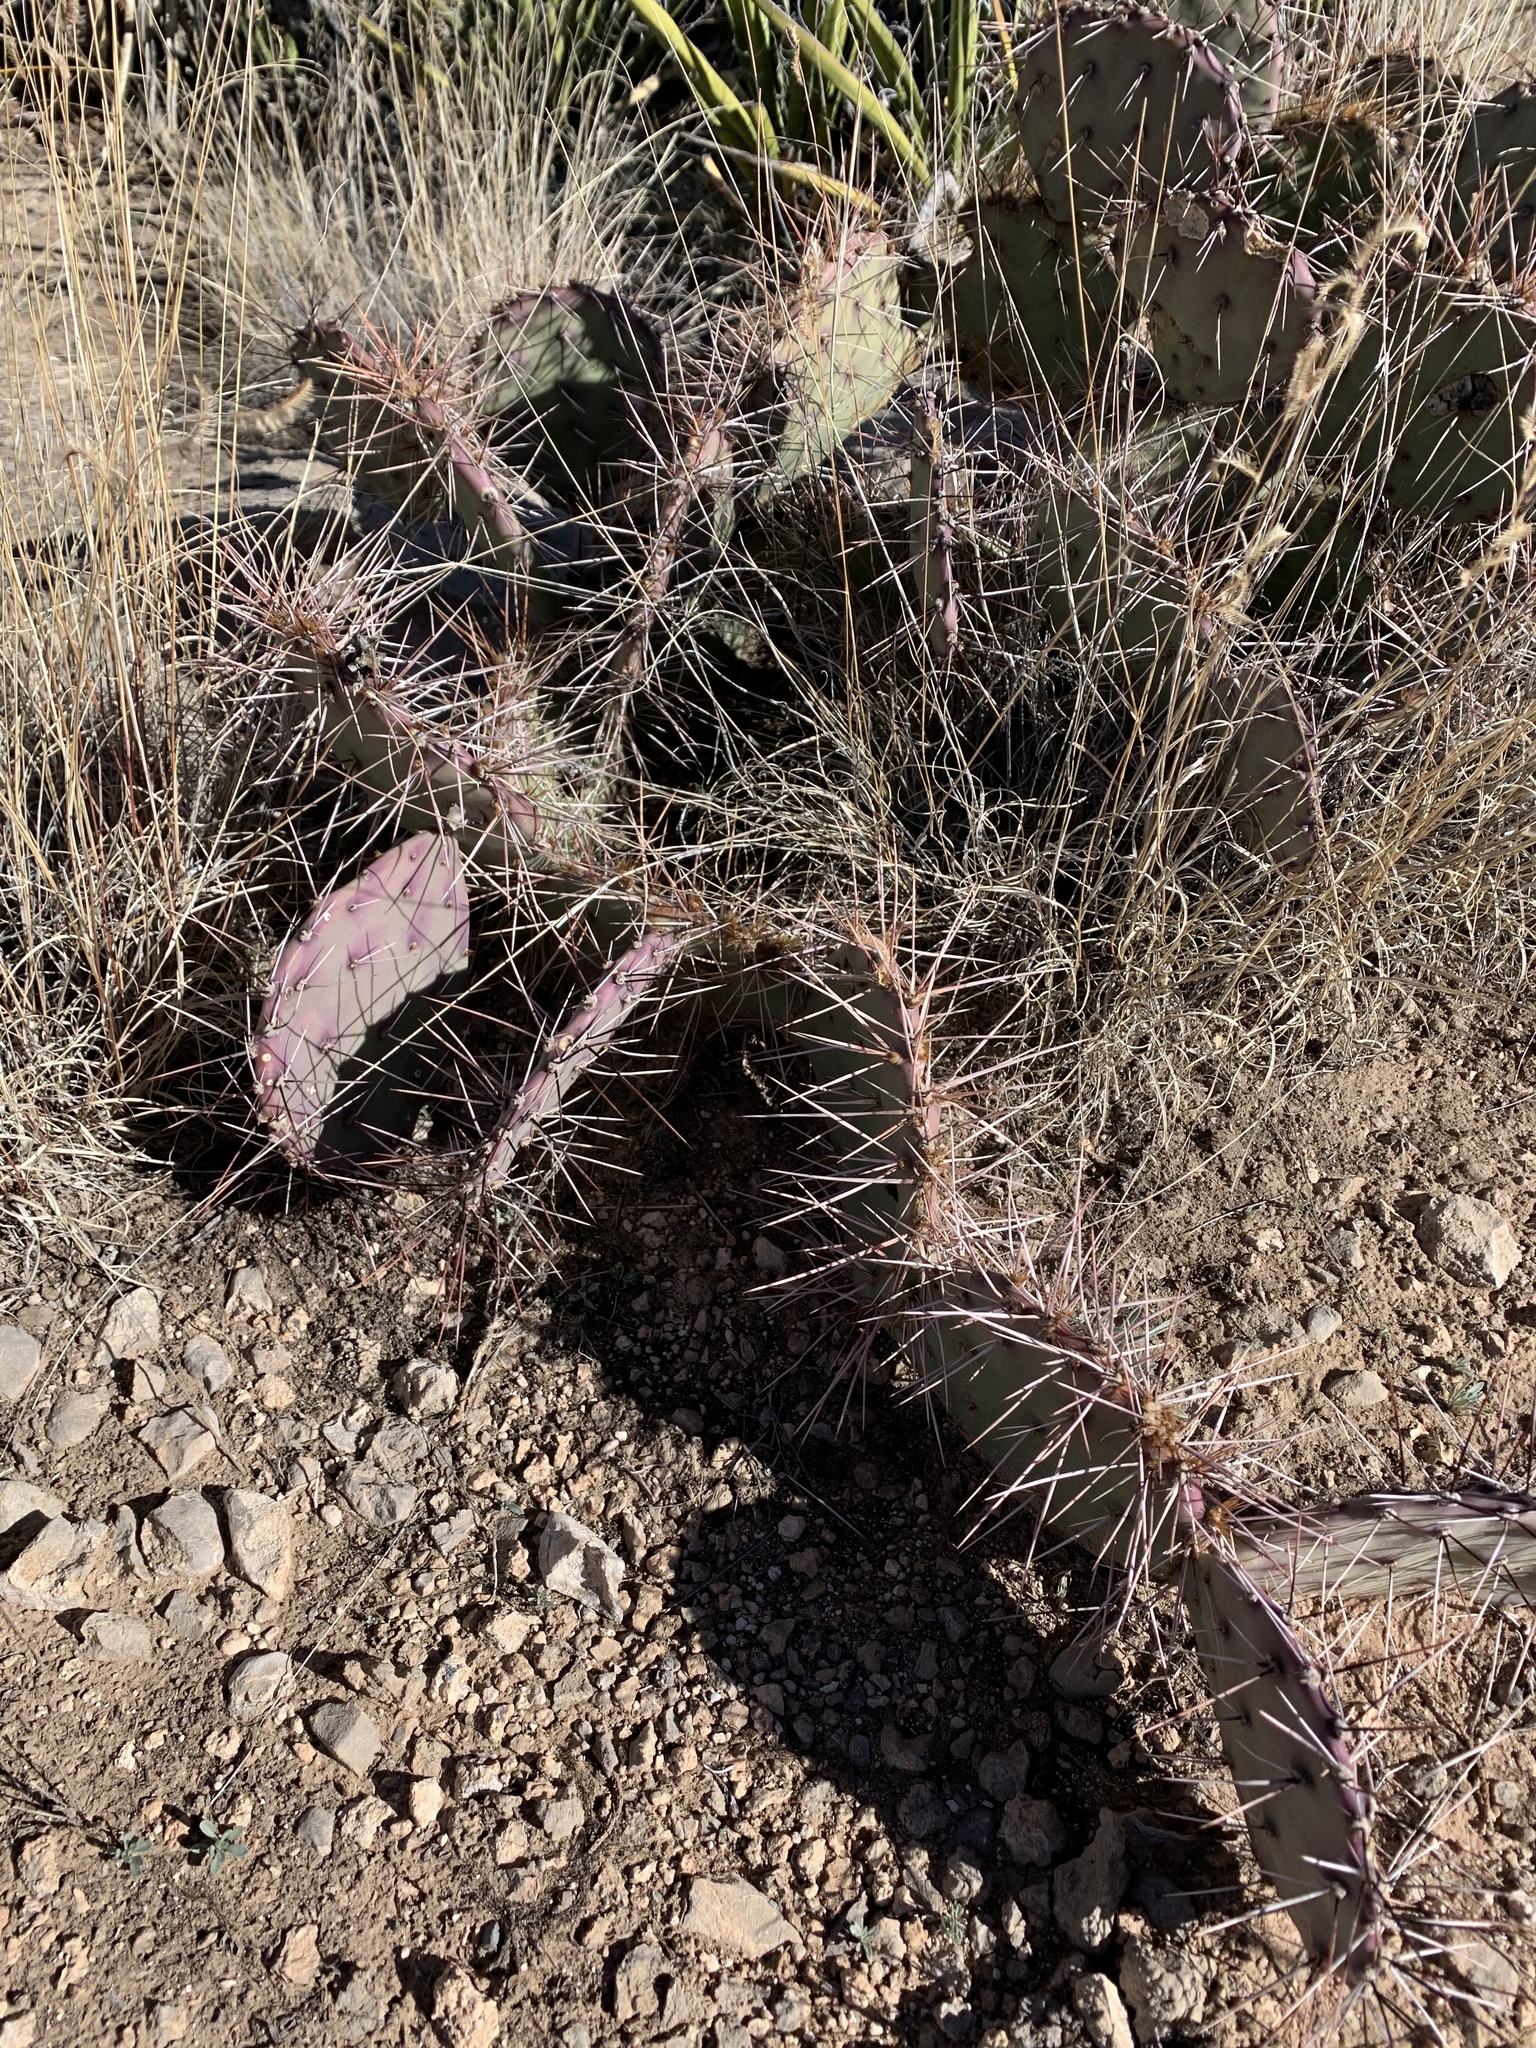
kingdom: Plantae
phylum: Tracheophyta
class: Magnoliopsida
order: Caryophyllales
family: Cactaceae
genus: Opuntia
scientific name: Opuntia macrocentra
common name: Purple prickly-pear
